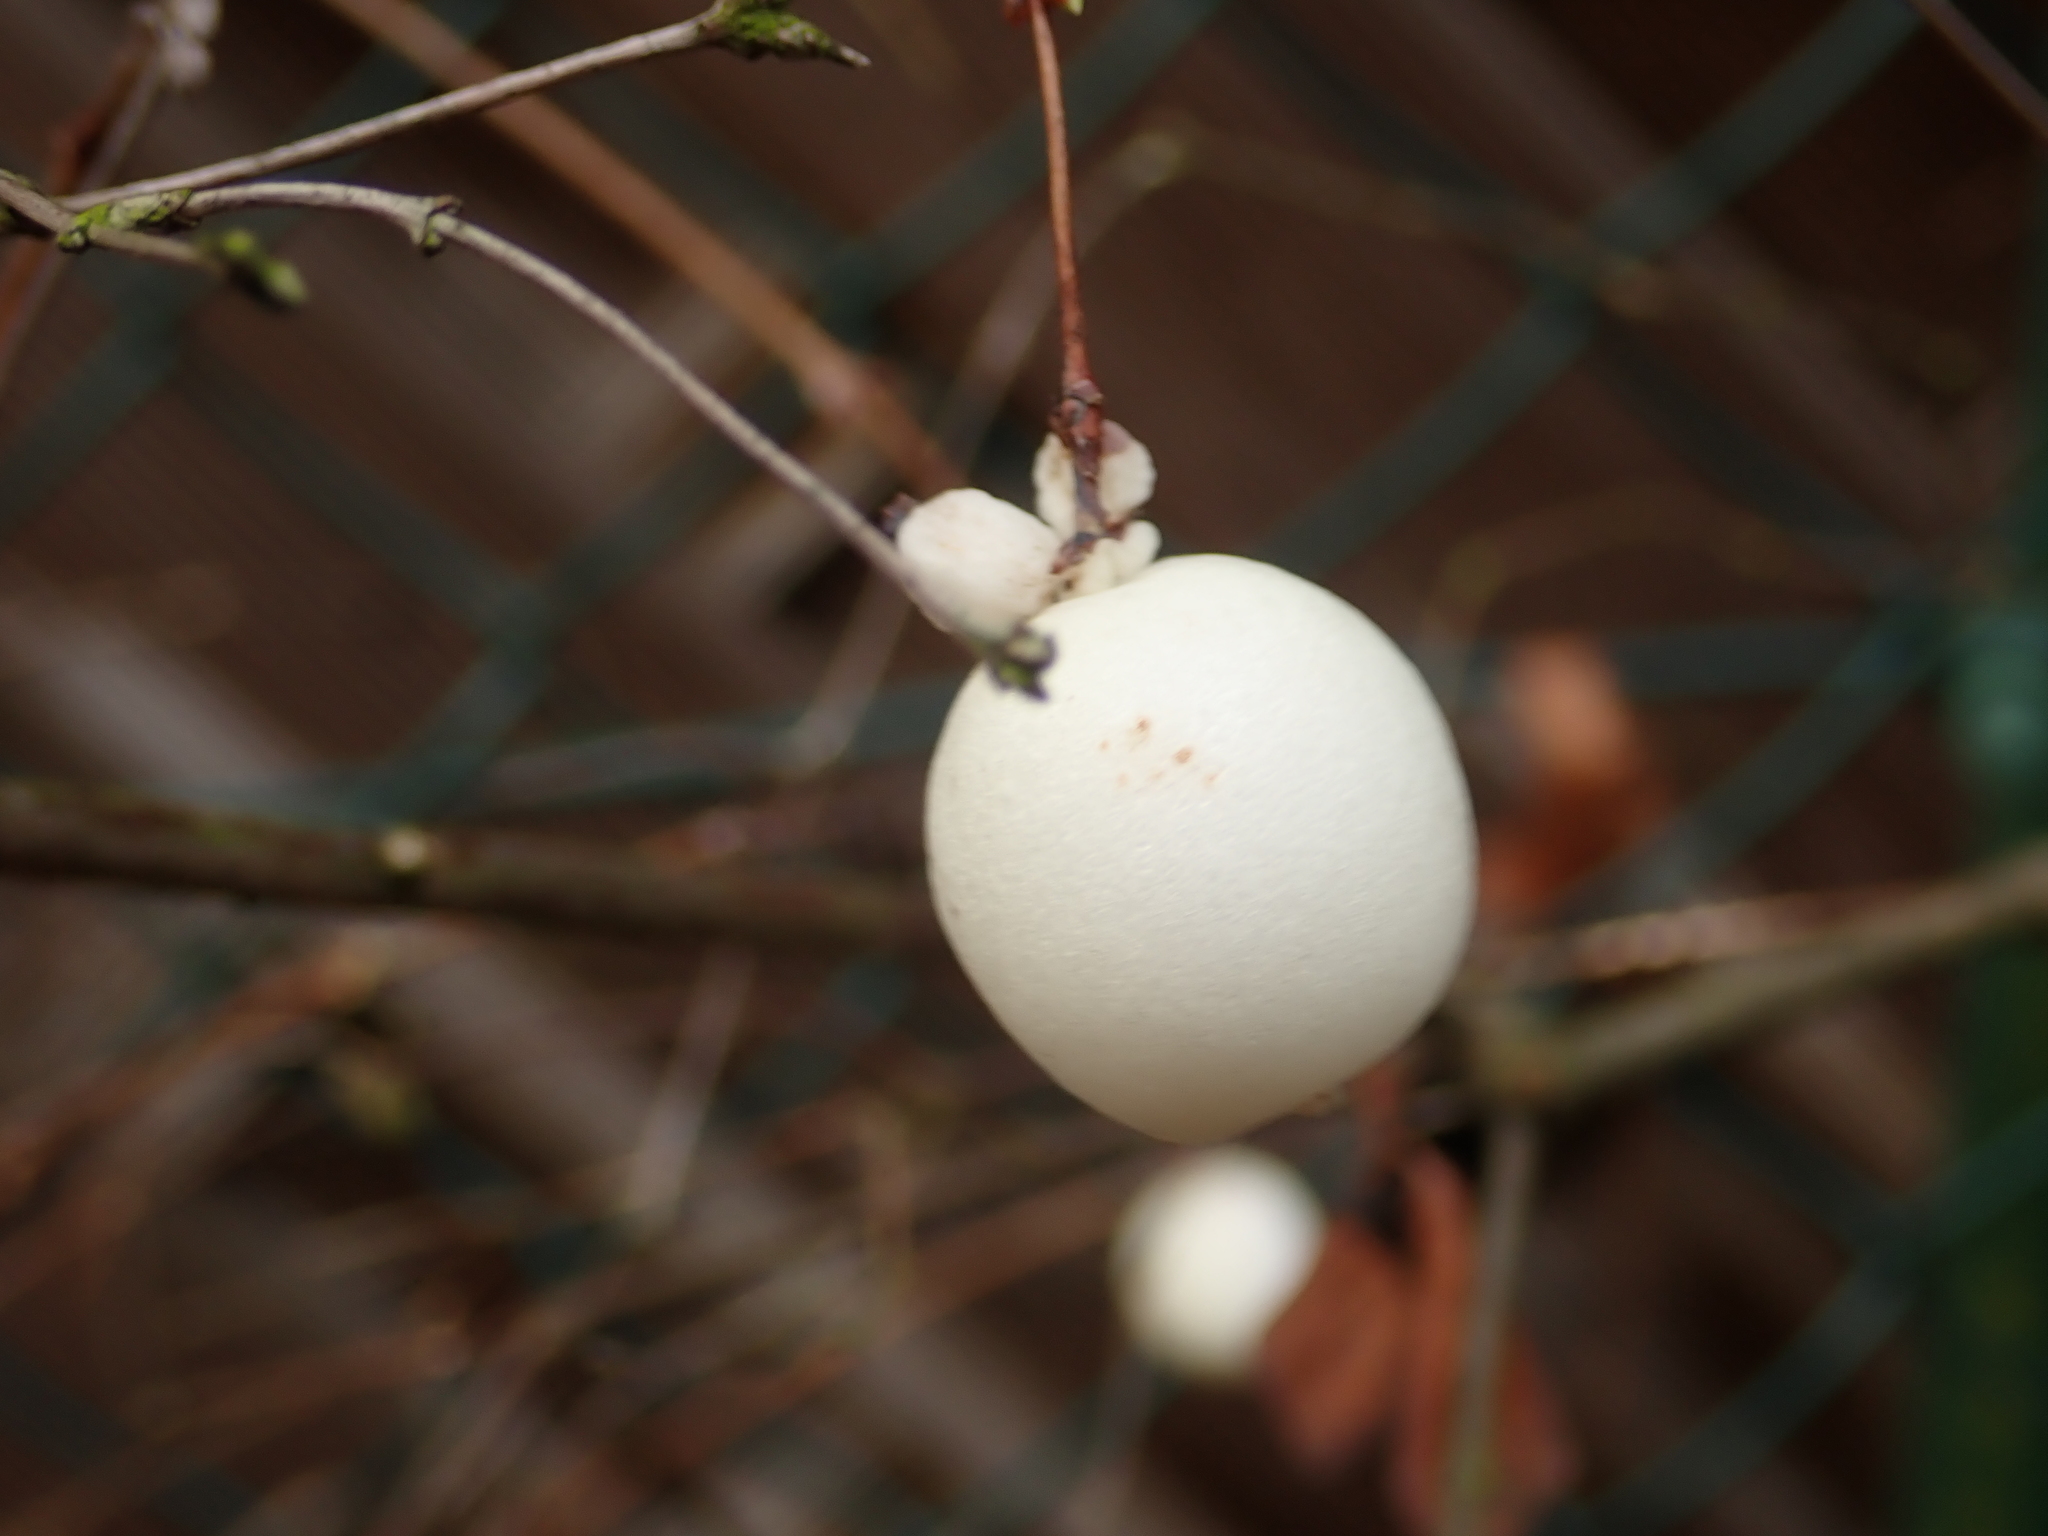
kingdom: Plantae
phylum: Tracheophyta
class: Magnoliopsida
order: Dipsacales
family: Caprifoliaceae
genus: Symphoricarpos
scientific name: Symphoricarpos albus
